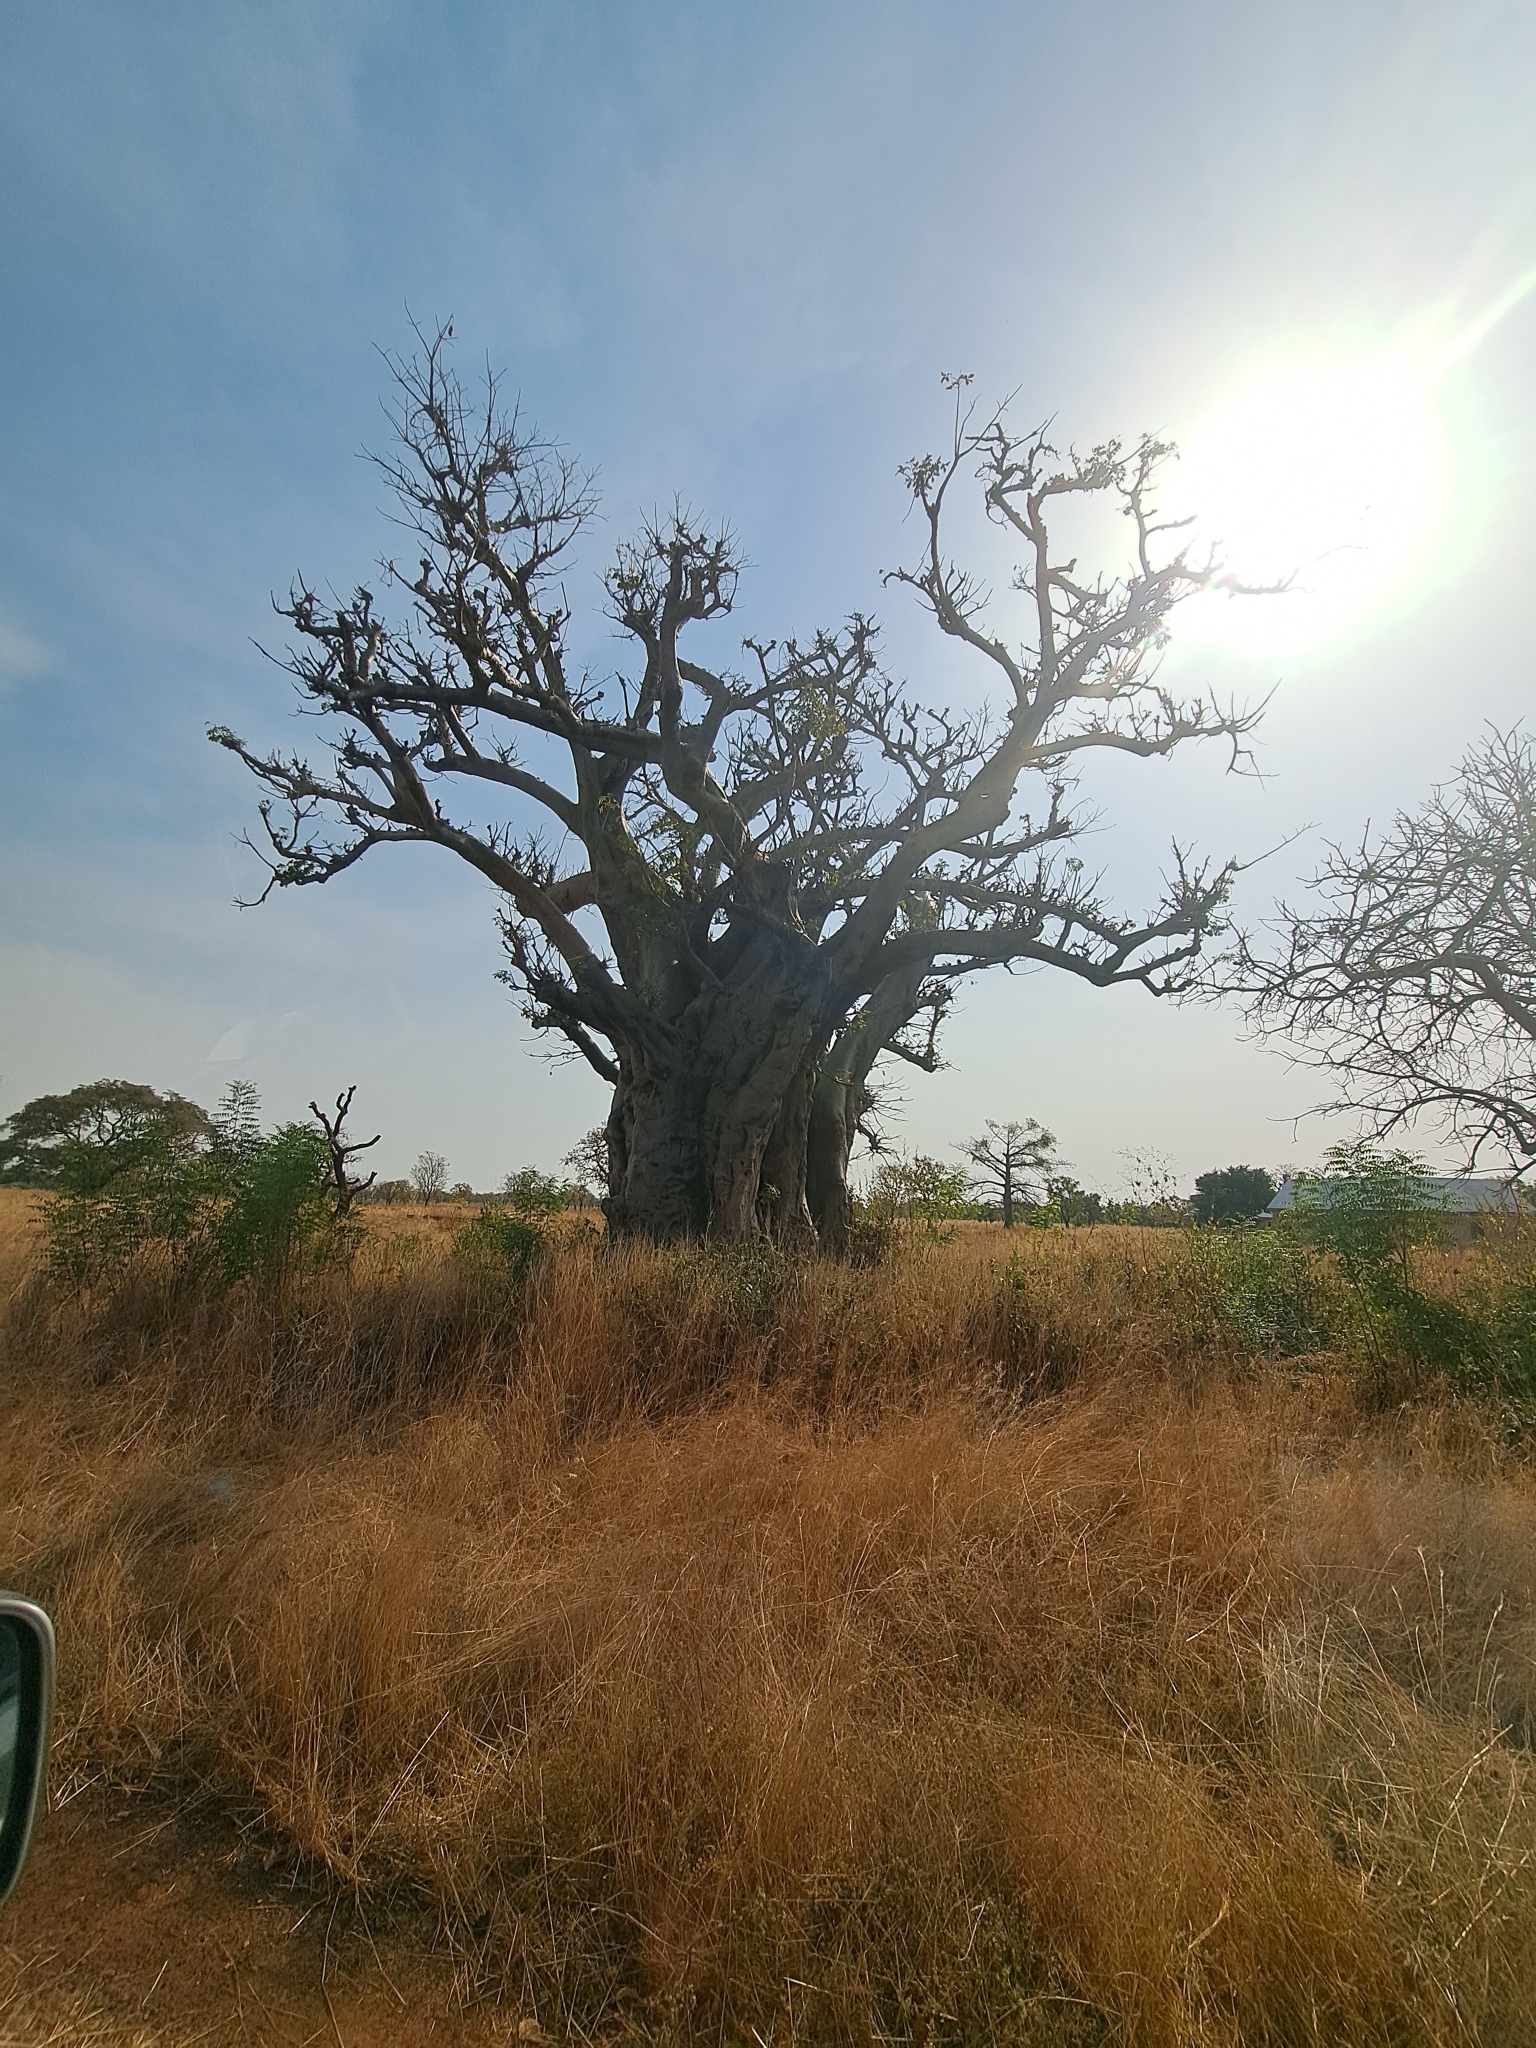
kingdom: Plantae
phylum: Tracheophyta
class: Magnoliopsida
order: Malvales
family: Malvaceae
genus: Adansonia
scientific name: Adansonia digitata
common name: Dead-rat-tree
